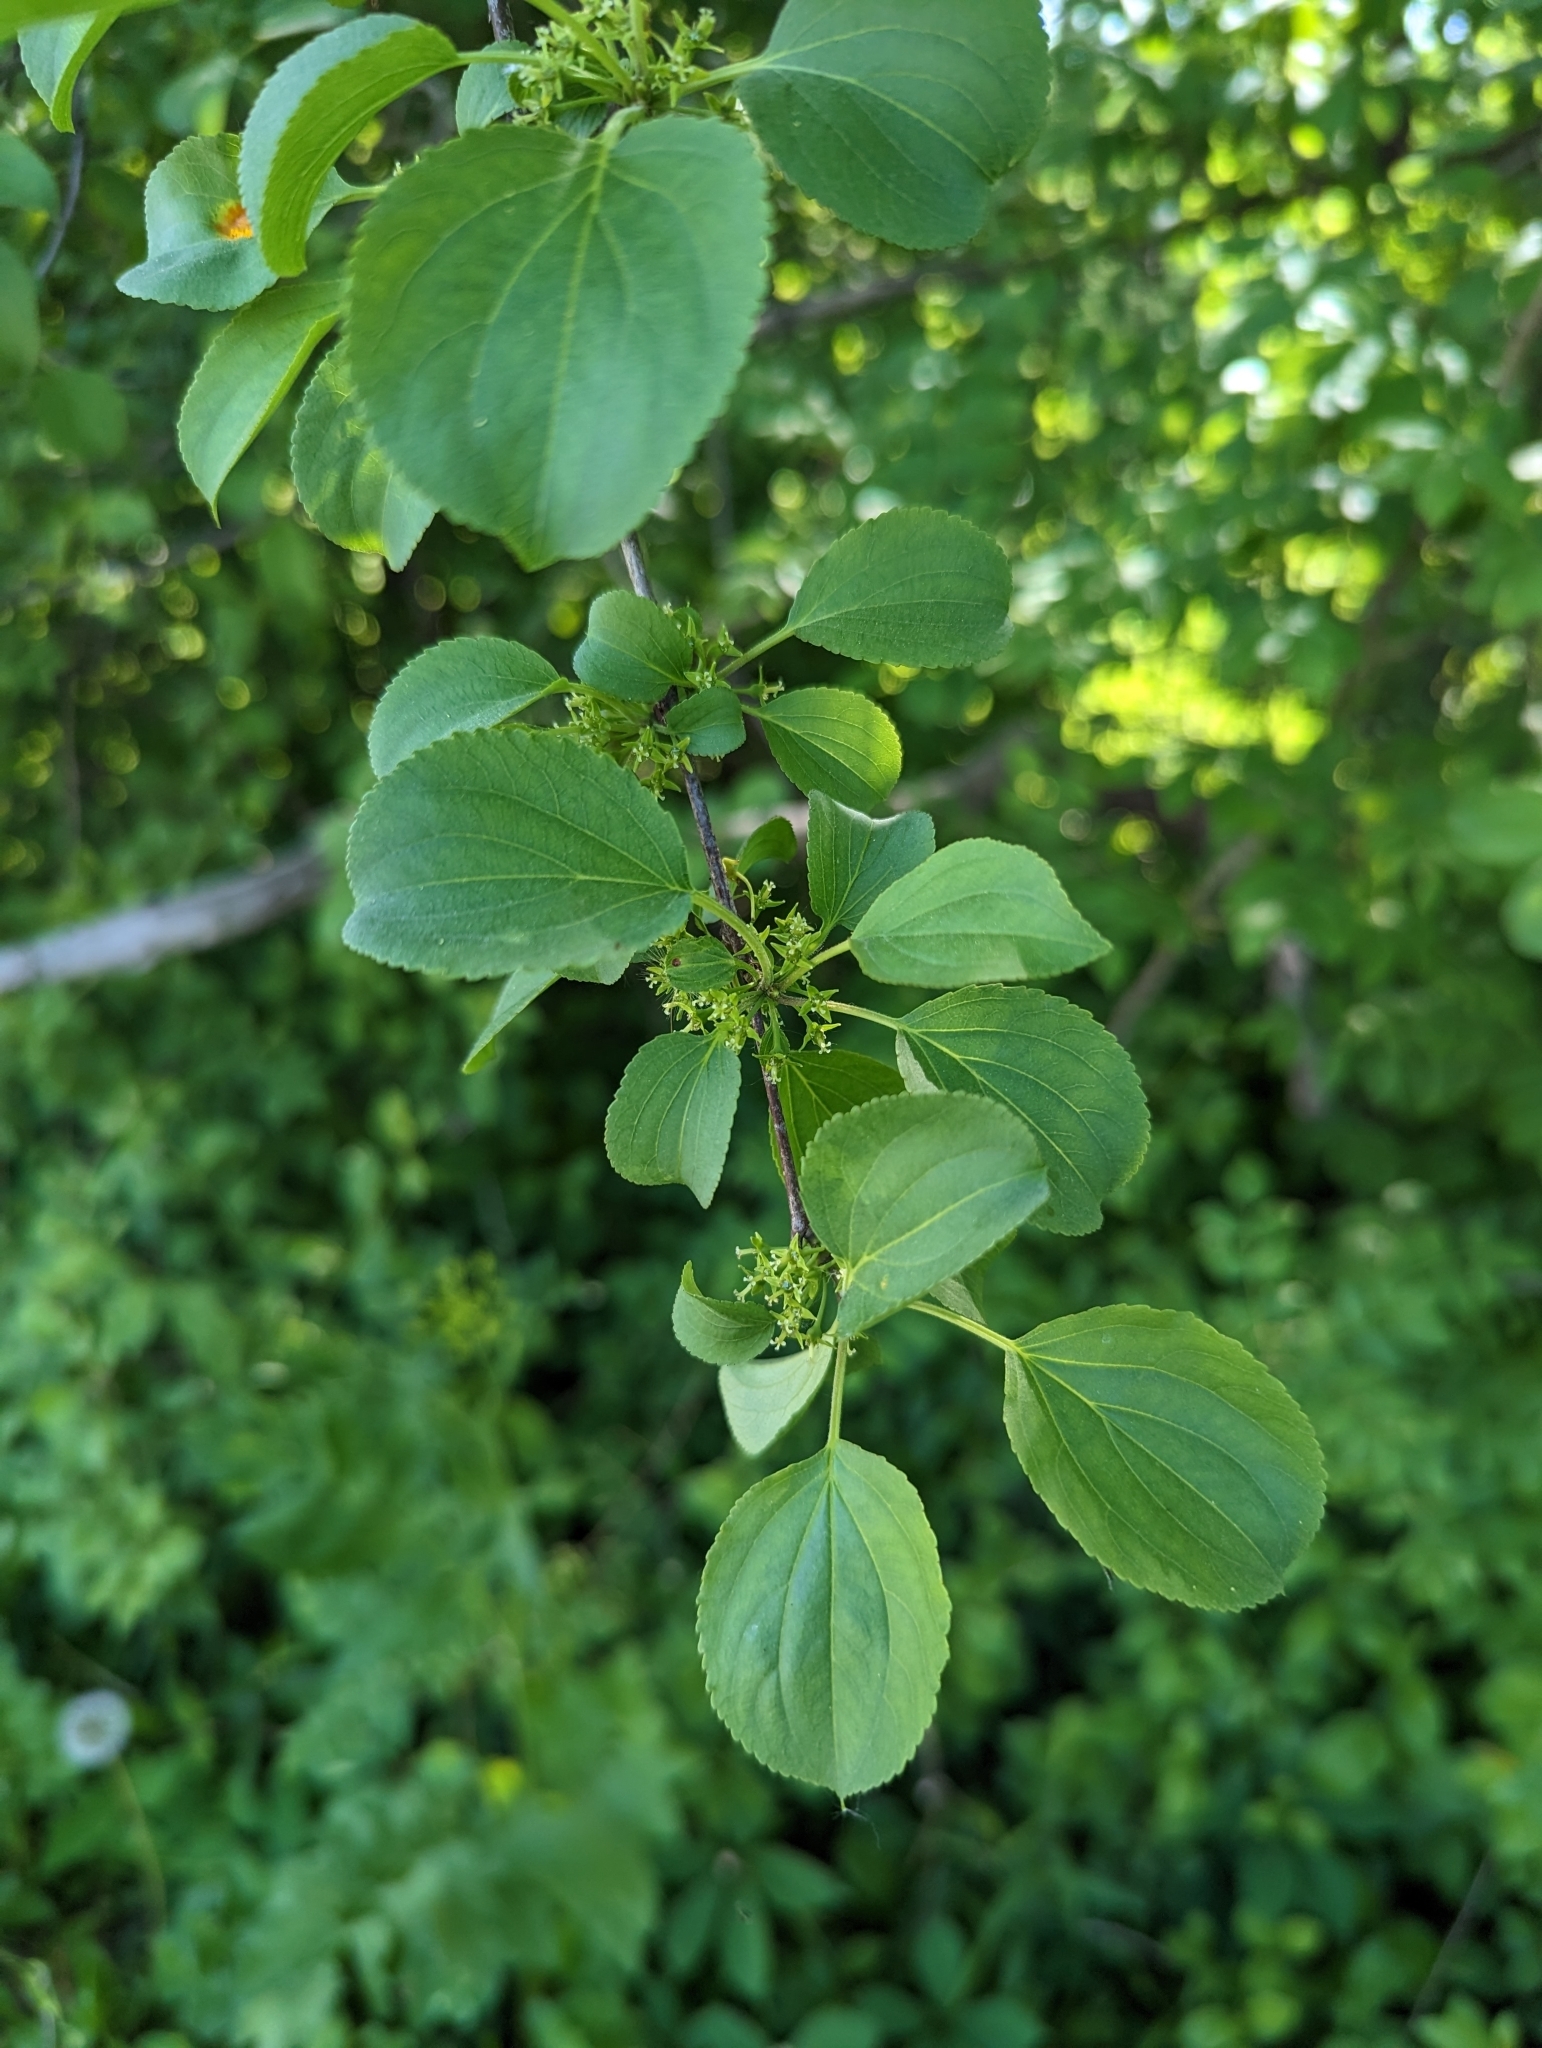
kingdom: Plantae
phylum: Tracheophyta
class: Magnoliopsida
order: Rosales
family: Rhamnaceae
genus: Rhamnus
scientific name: Rhamnus cathartica
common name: Common buckthorn
